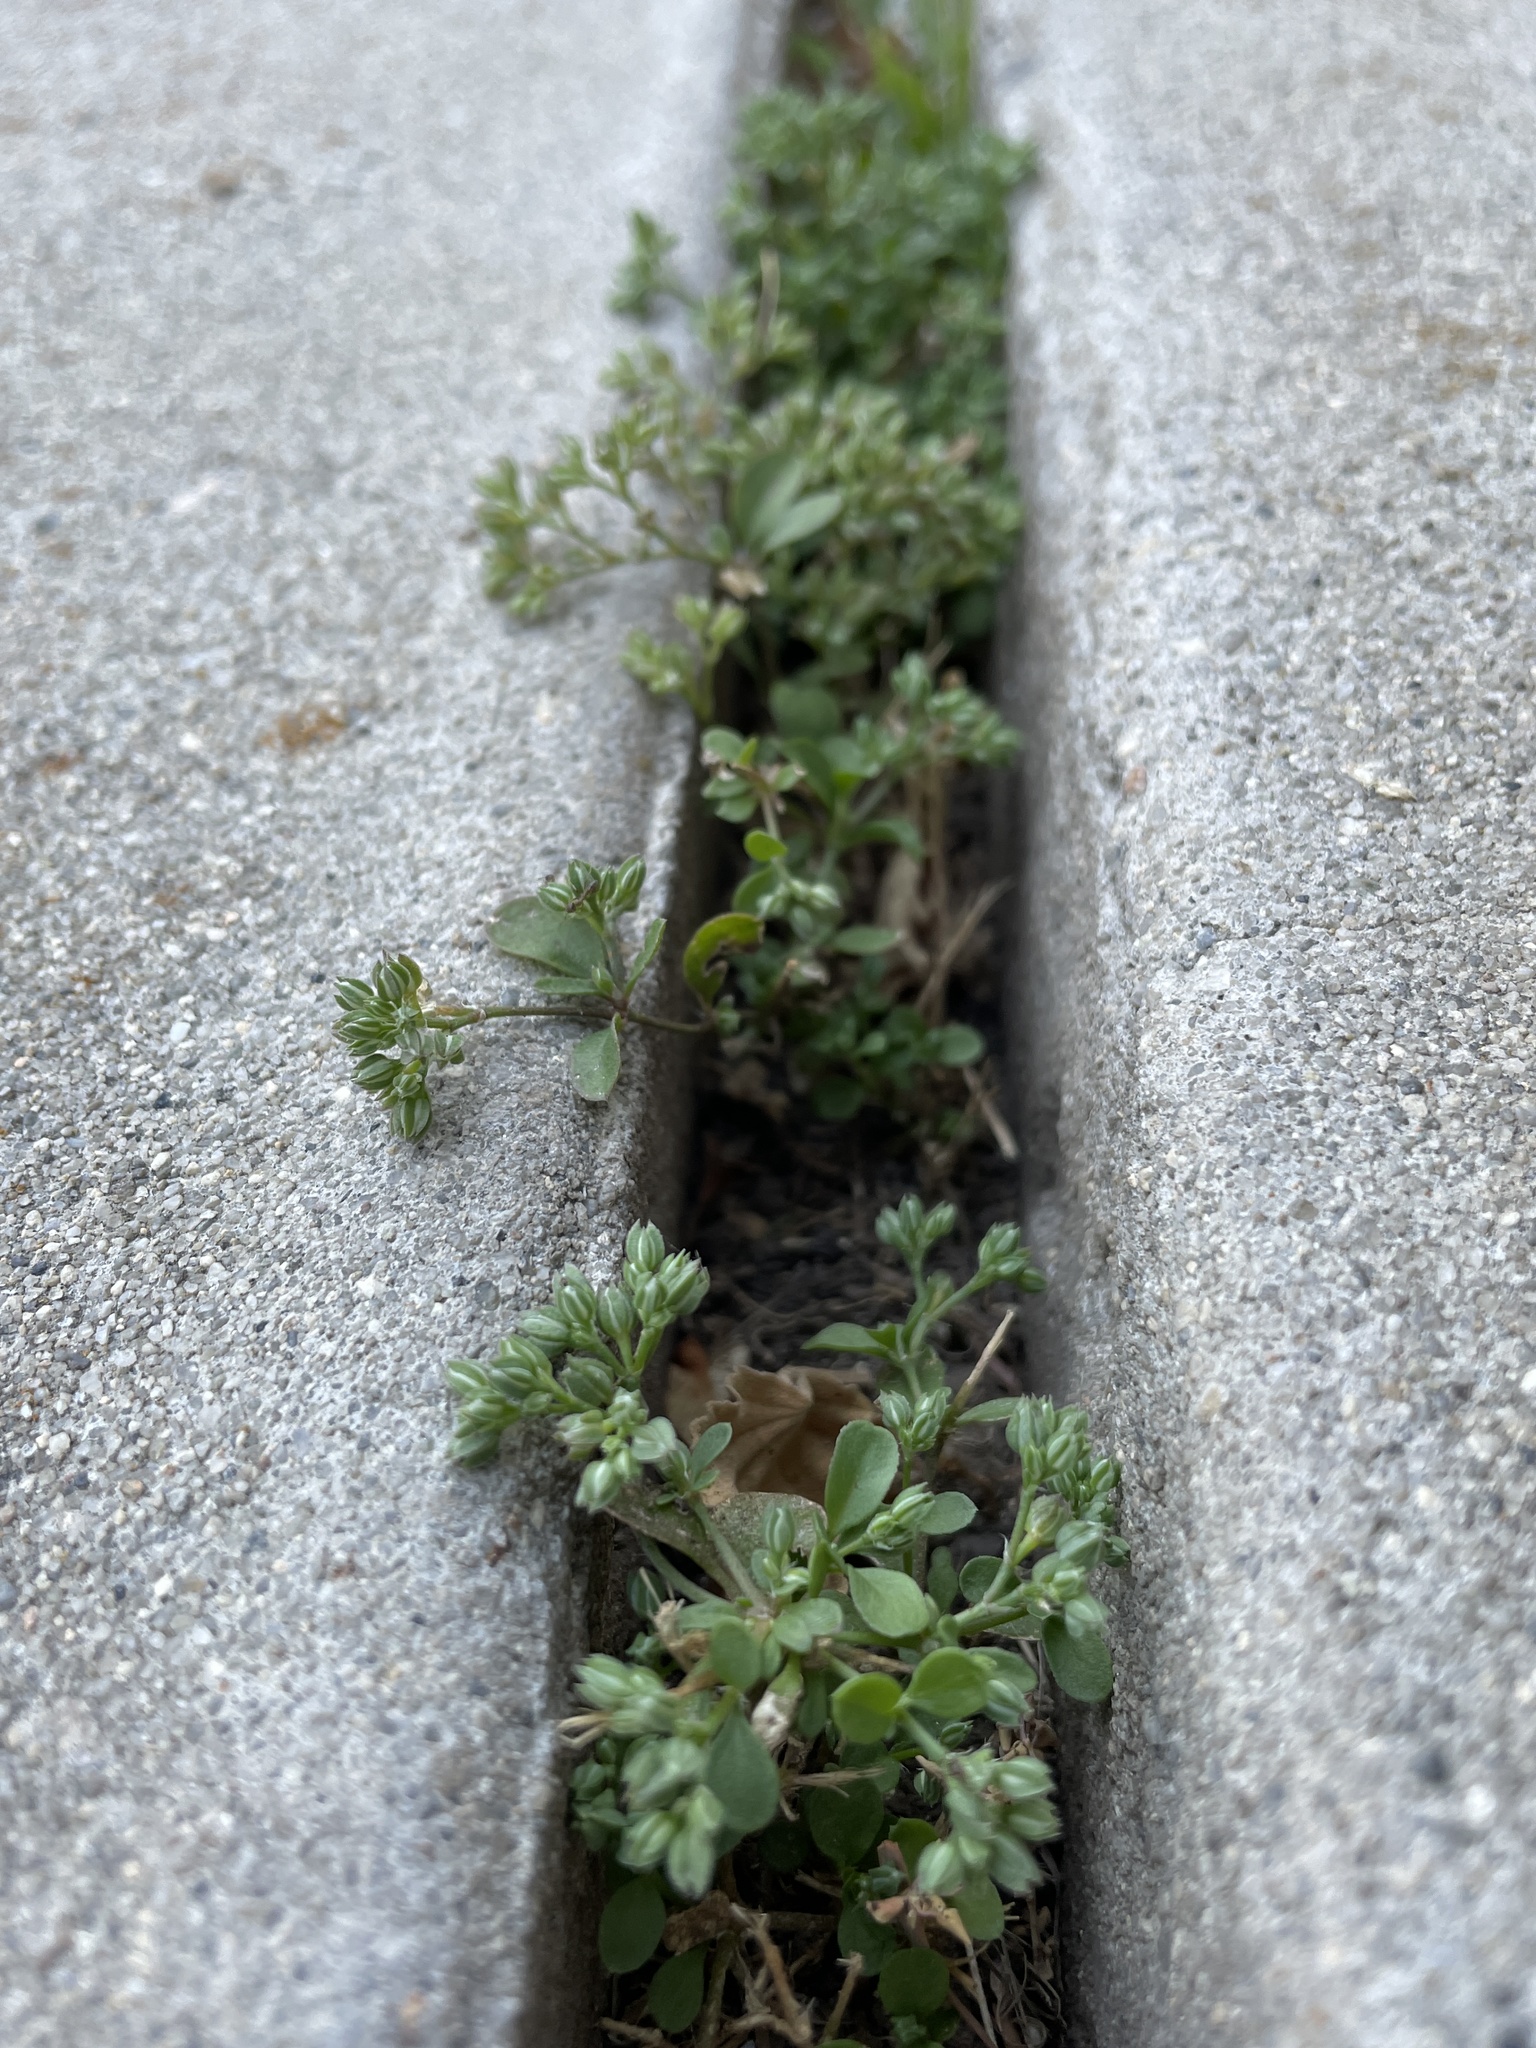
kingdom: Plantae
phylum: Tracheophyta
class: Magnoliopsida
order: Caryophyllales
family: Caryophyllaceae
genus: Polycarpon
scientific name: Polycarpon tetraphyllum
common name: Four-leaved all-seed
